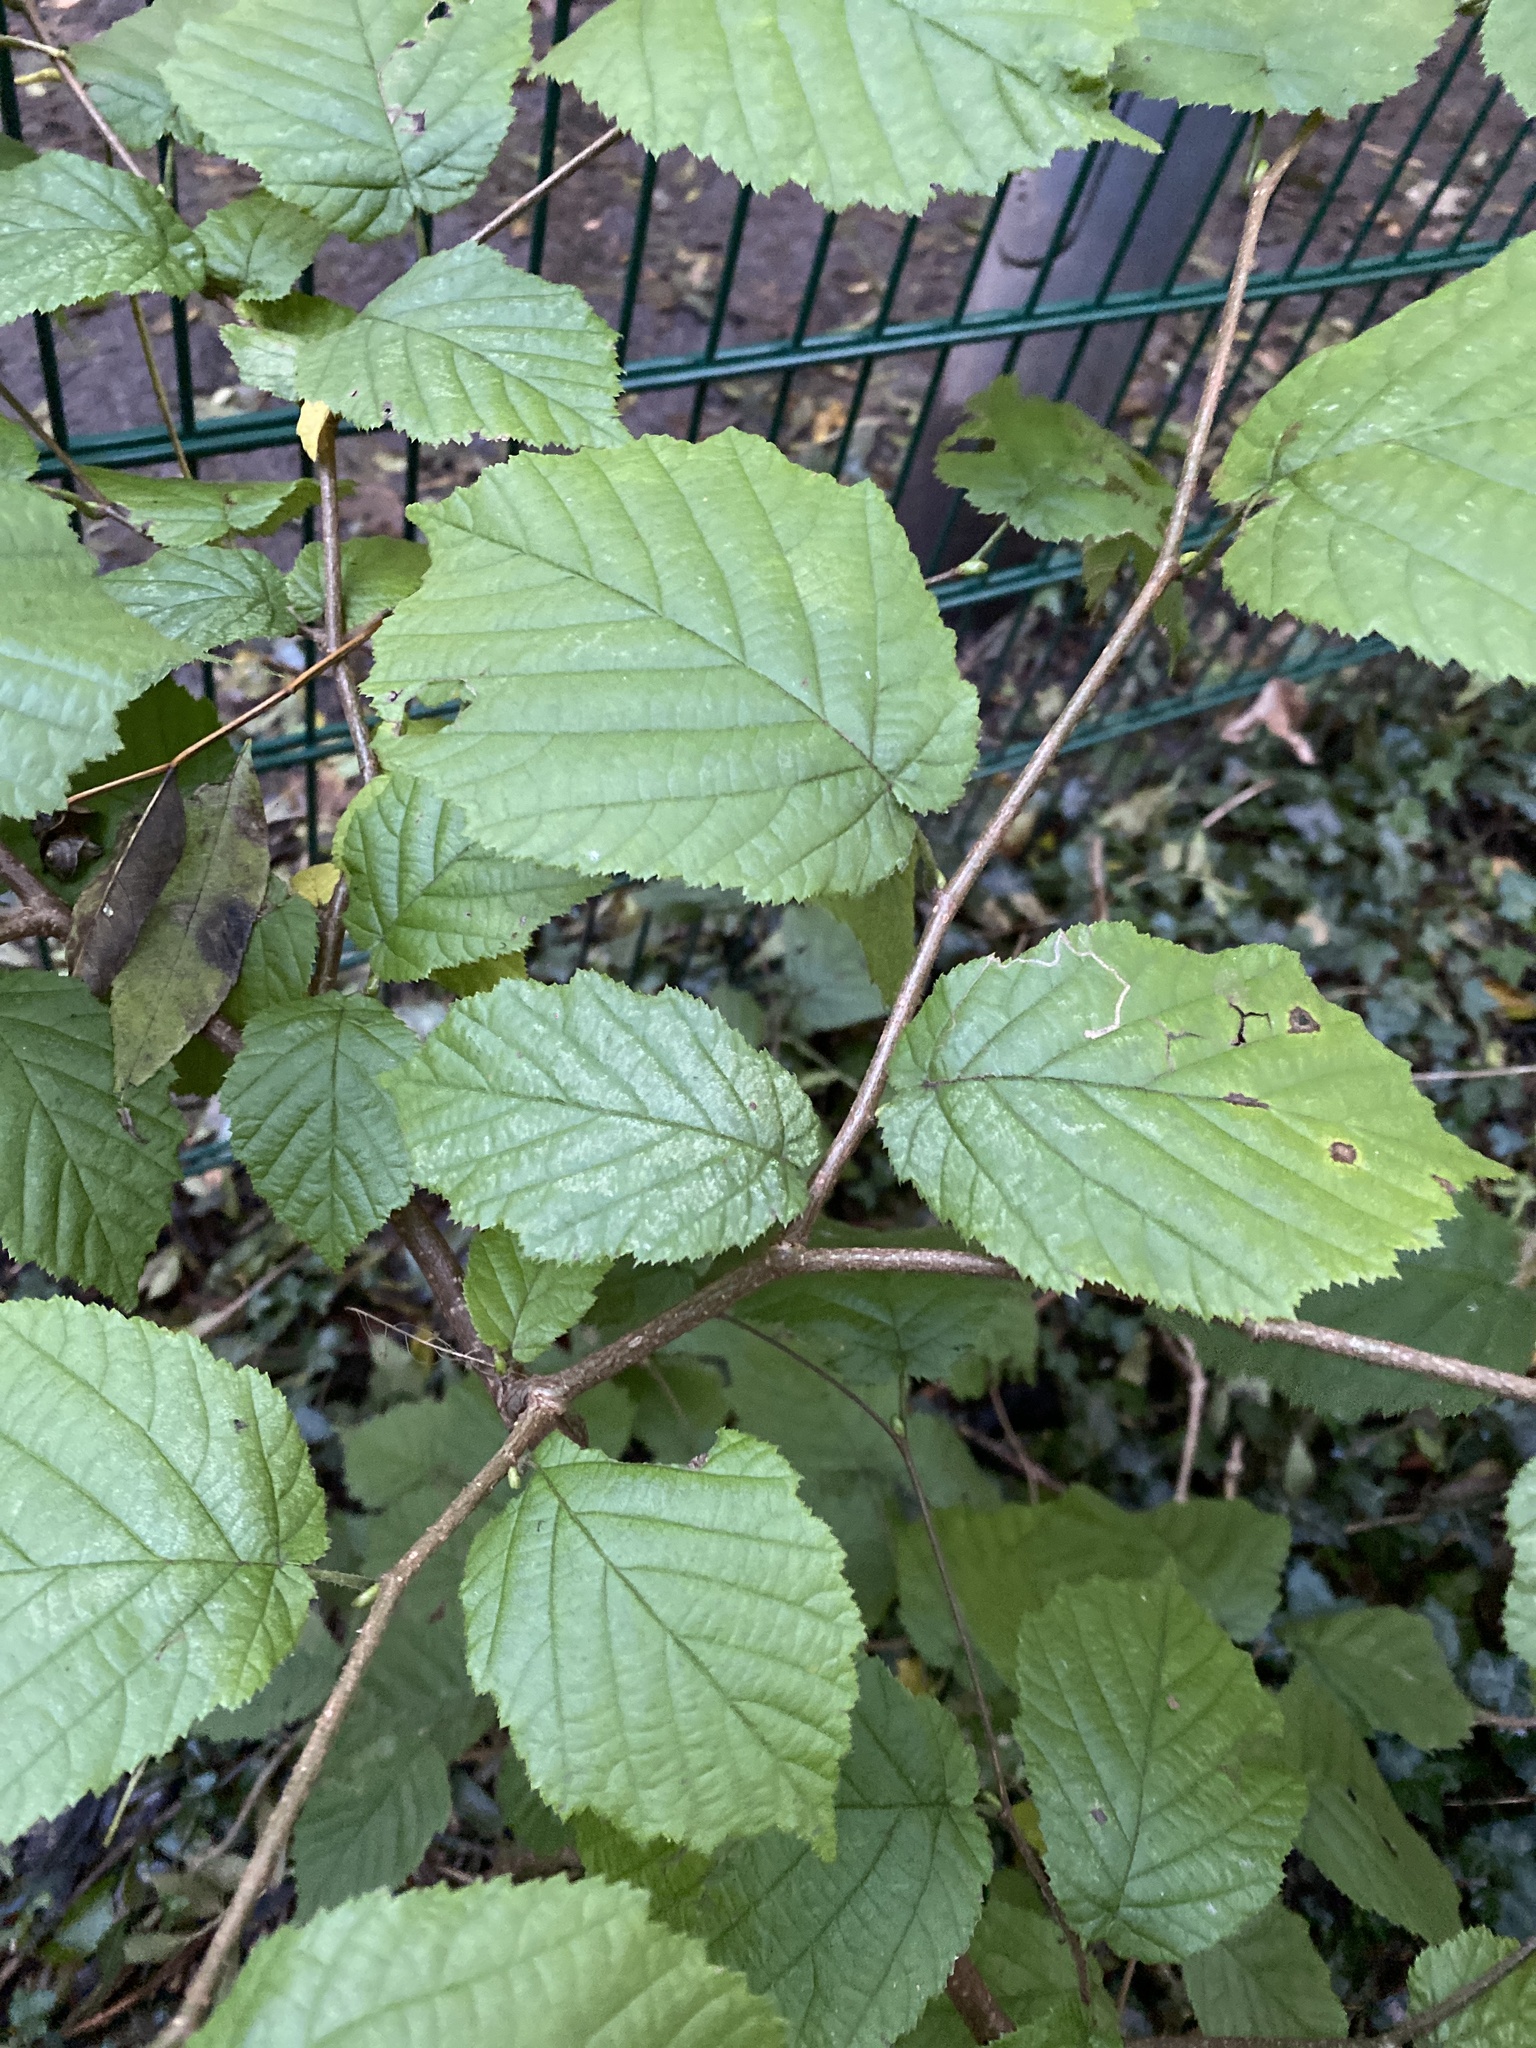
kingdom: Plantae
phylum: Tracheophyta
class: Magnoliopsida
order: Fagales
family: Betulaceae
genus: Corylus
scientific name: Corylus avellana
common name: European hazel
